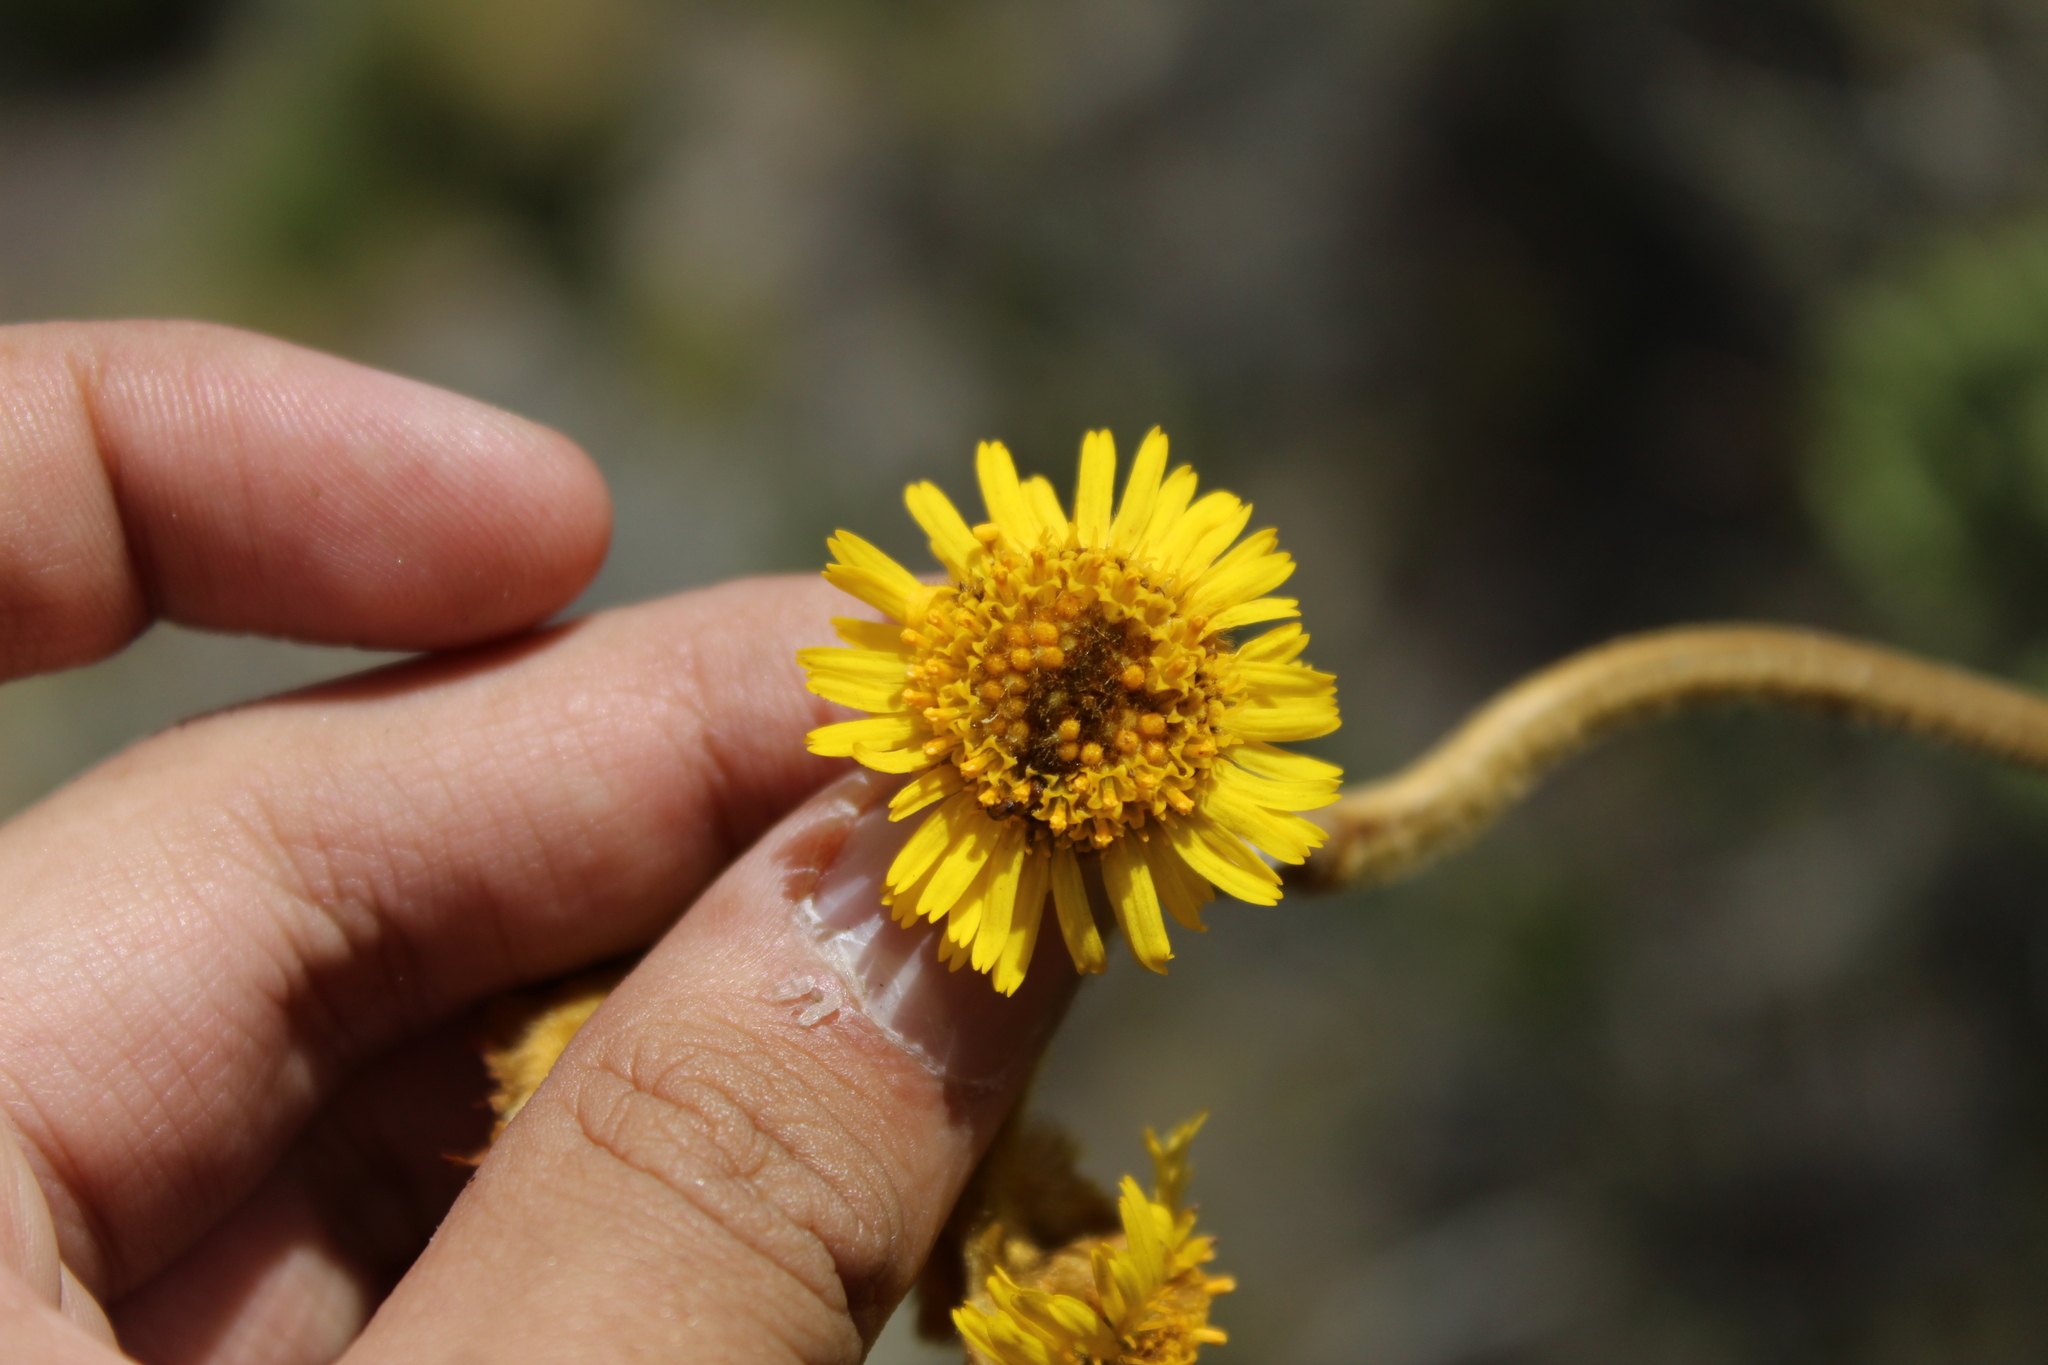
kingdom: Plantae
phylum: Tracheophyta
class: Magnoliopsida
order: Asterales
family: Asteraceae
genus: Espeletia
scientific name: Espeletia boyacensis
